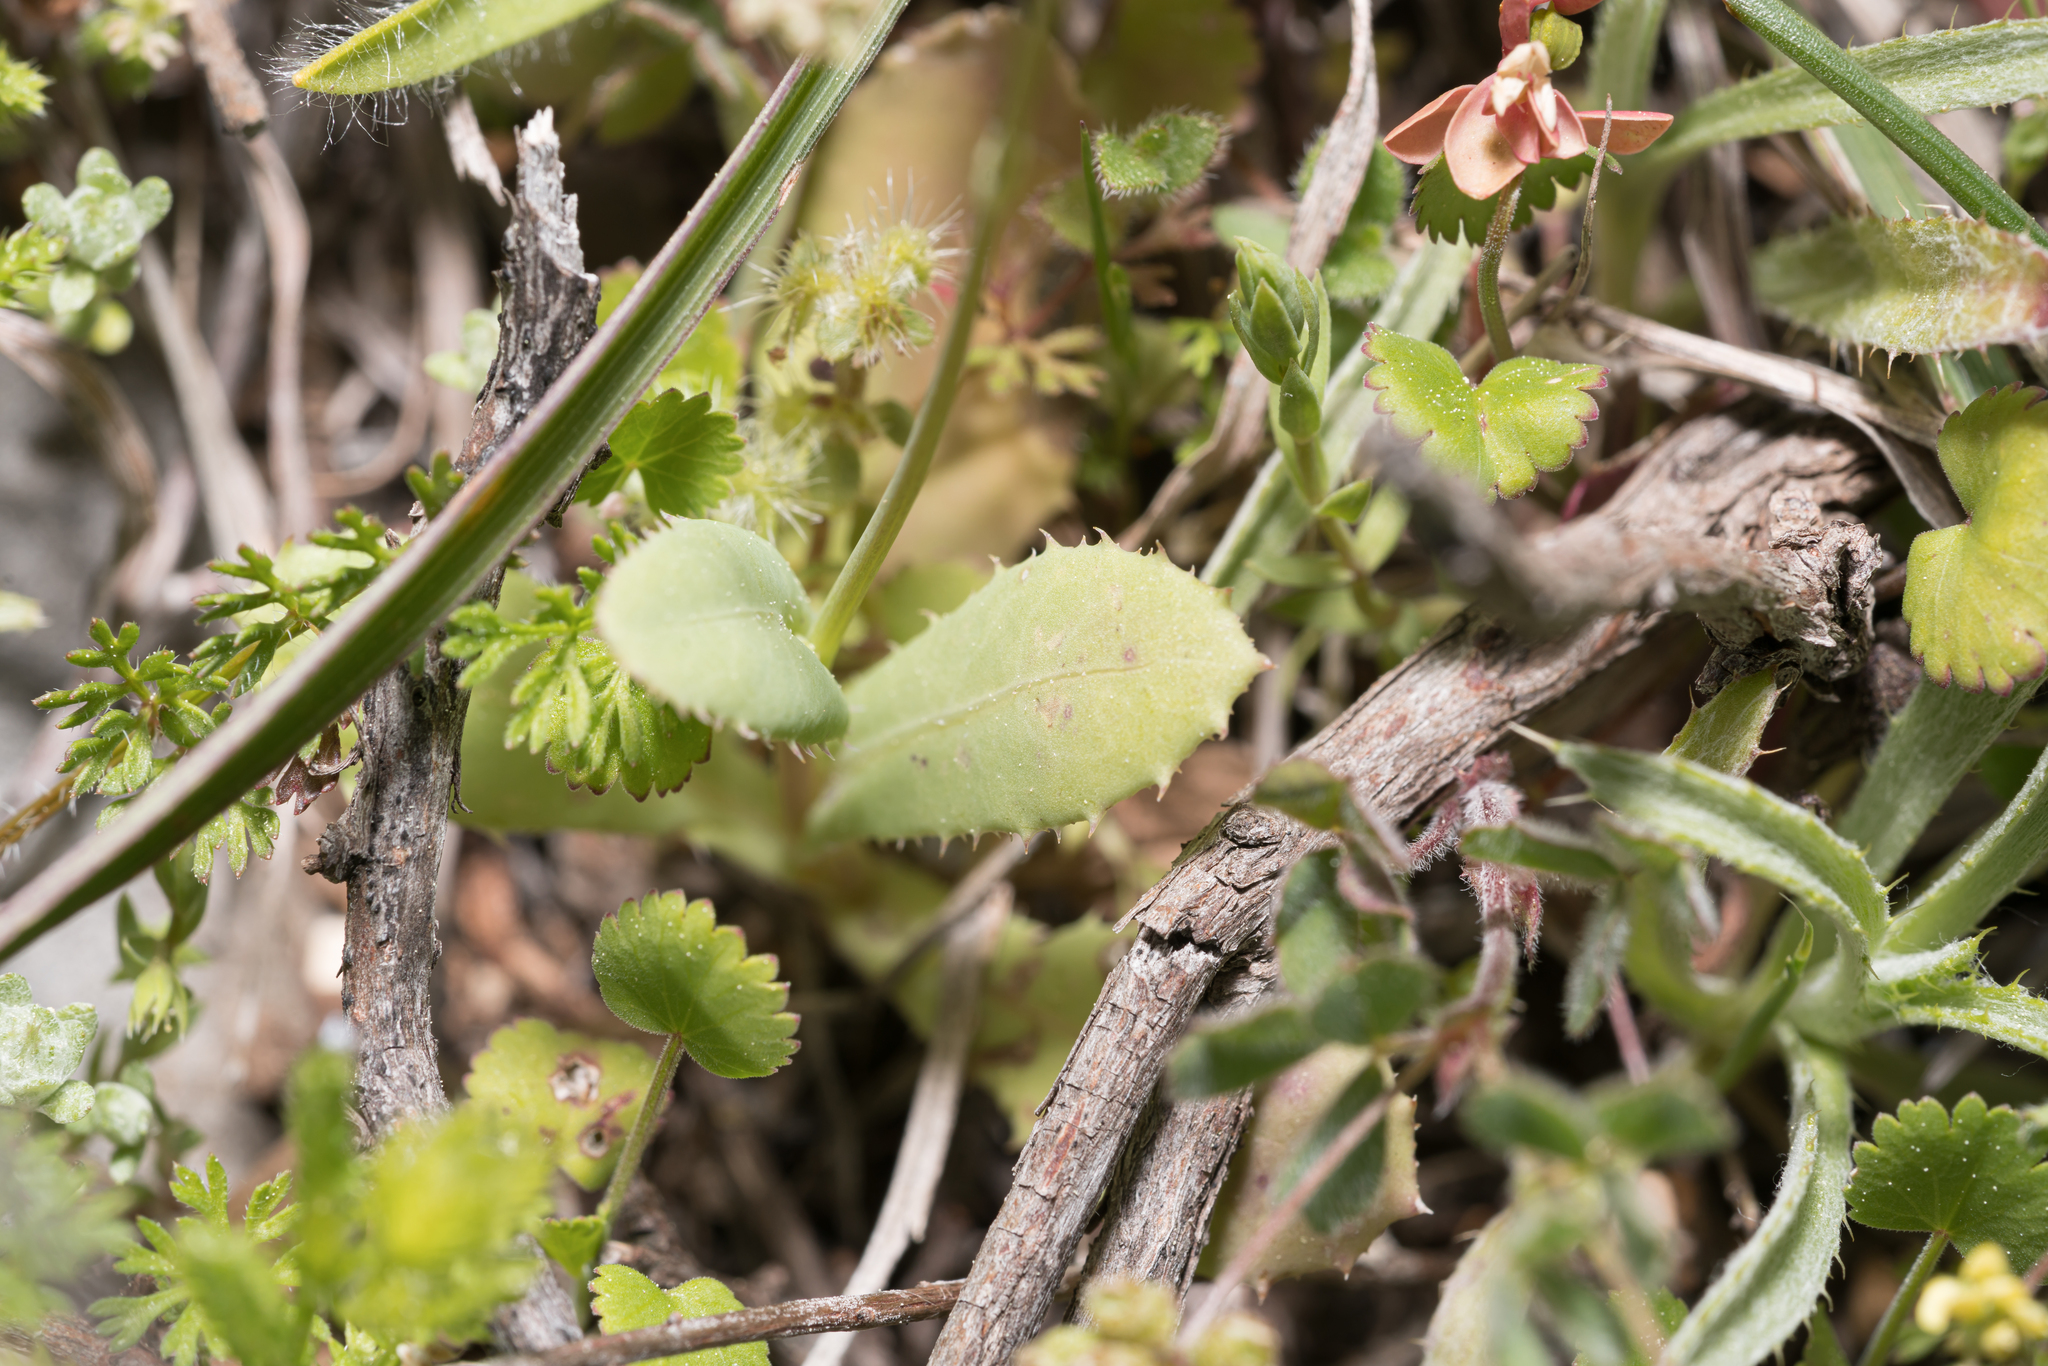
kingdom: Plantae
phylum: Tracheophyta
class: Magnoliopsida
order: Asterales
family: Asteraceae
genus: Reichardia
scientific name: Reichardia intermedia
